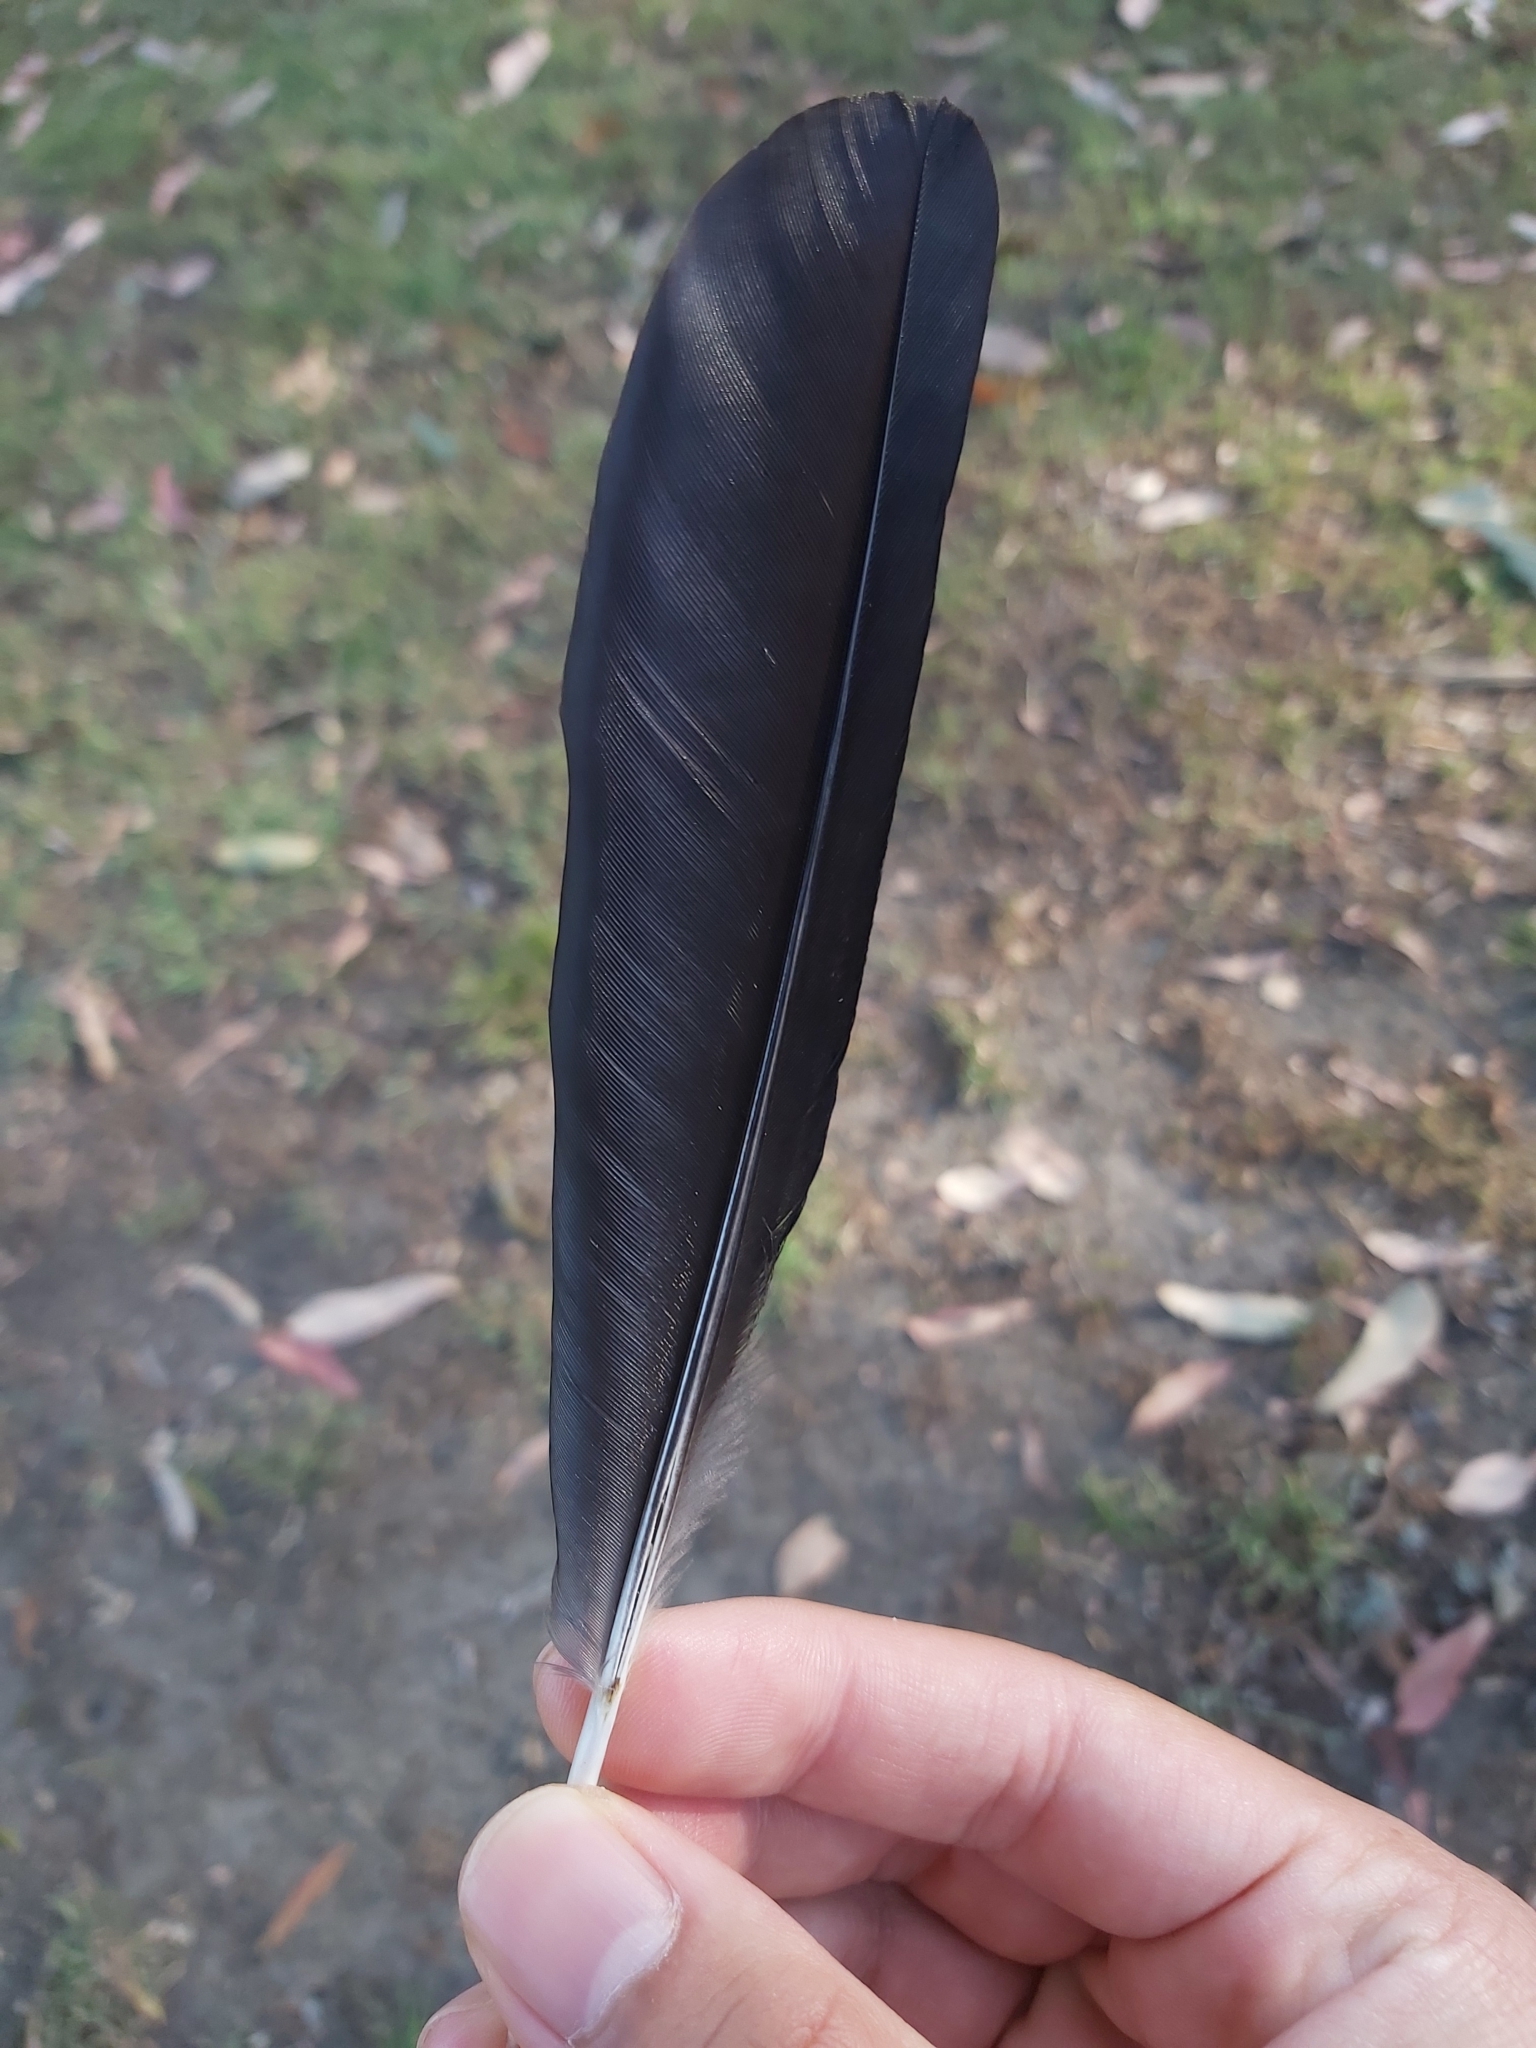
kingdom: Animalia
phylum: Chordata
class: Aves
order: Passeriformes
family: Cracticidae
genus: Gymnorhina
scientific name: Gymnorhina tibicen
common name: Australian magpie
